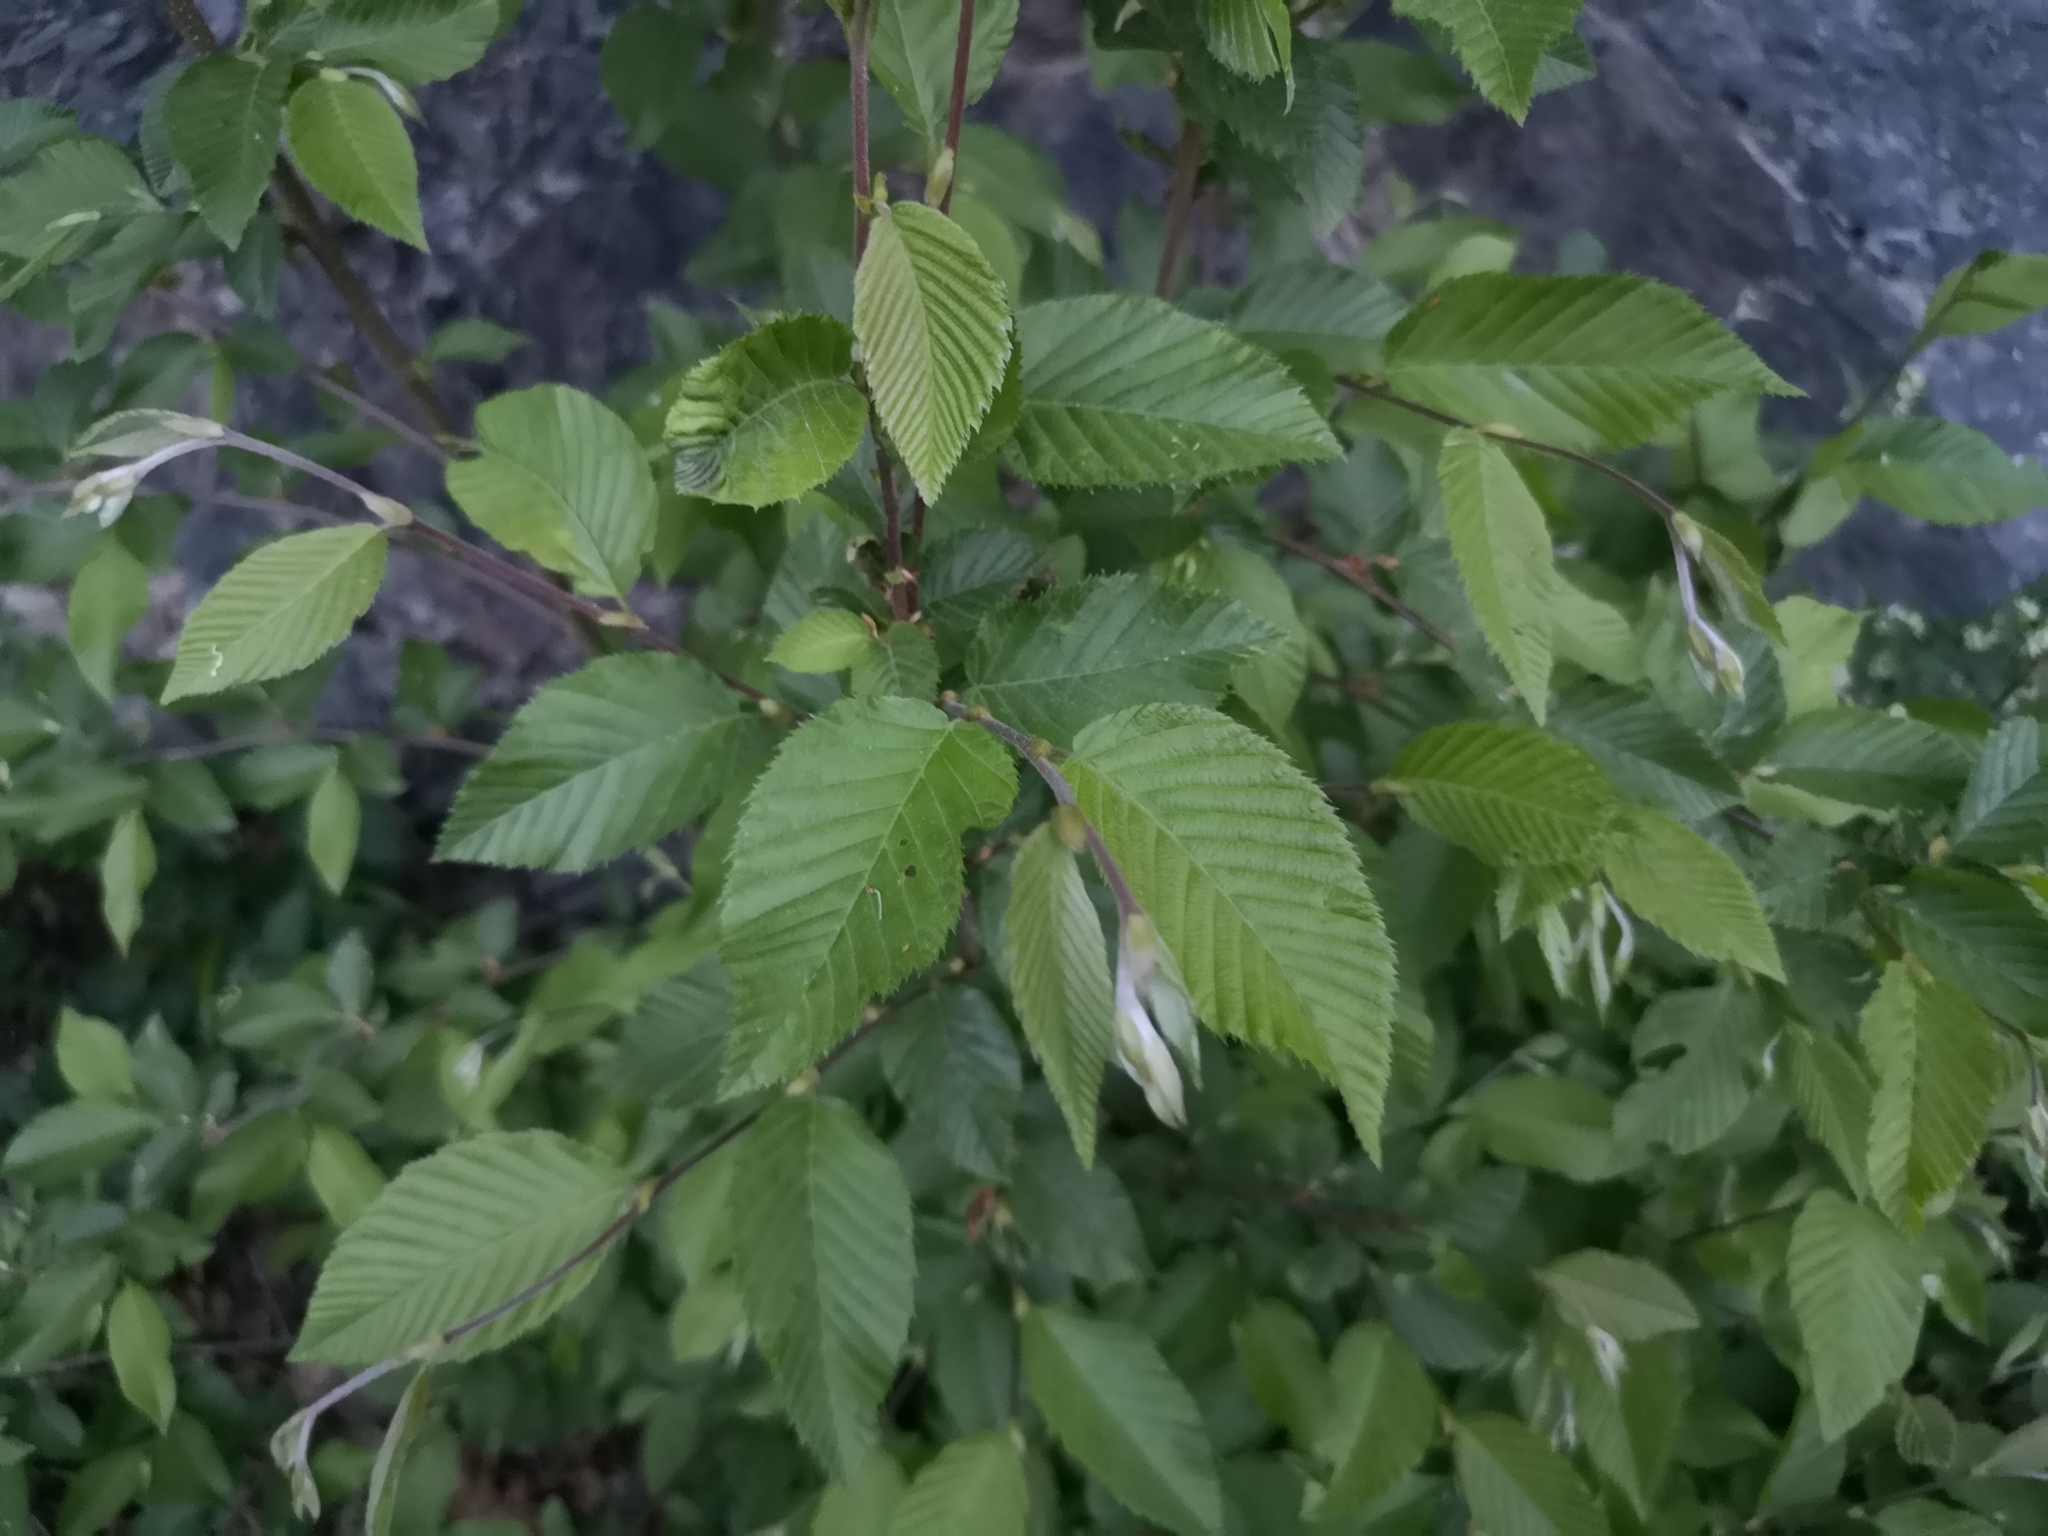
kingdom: Plantae
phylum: Tracheophyta
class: Magnoliopsida
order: Fagales
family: Betulaceae
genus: Ostrya
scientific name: Ostrya carpinifolia
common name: European hop-hornbeam
